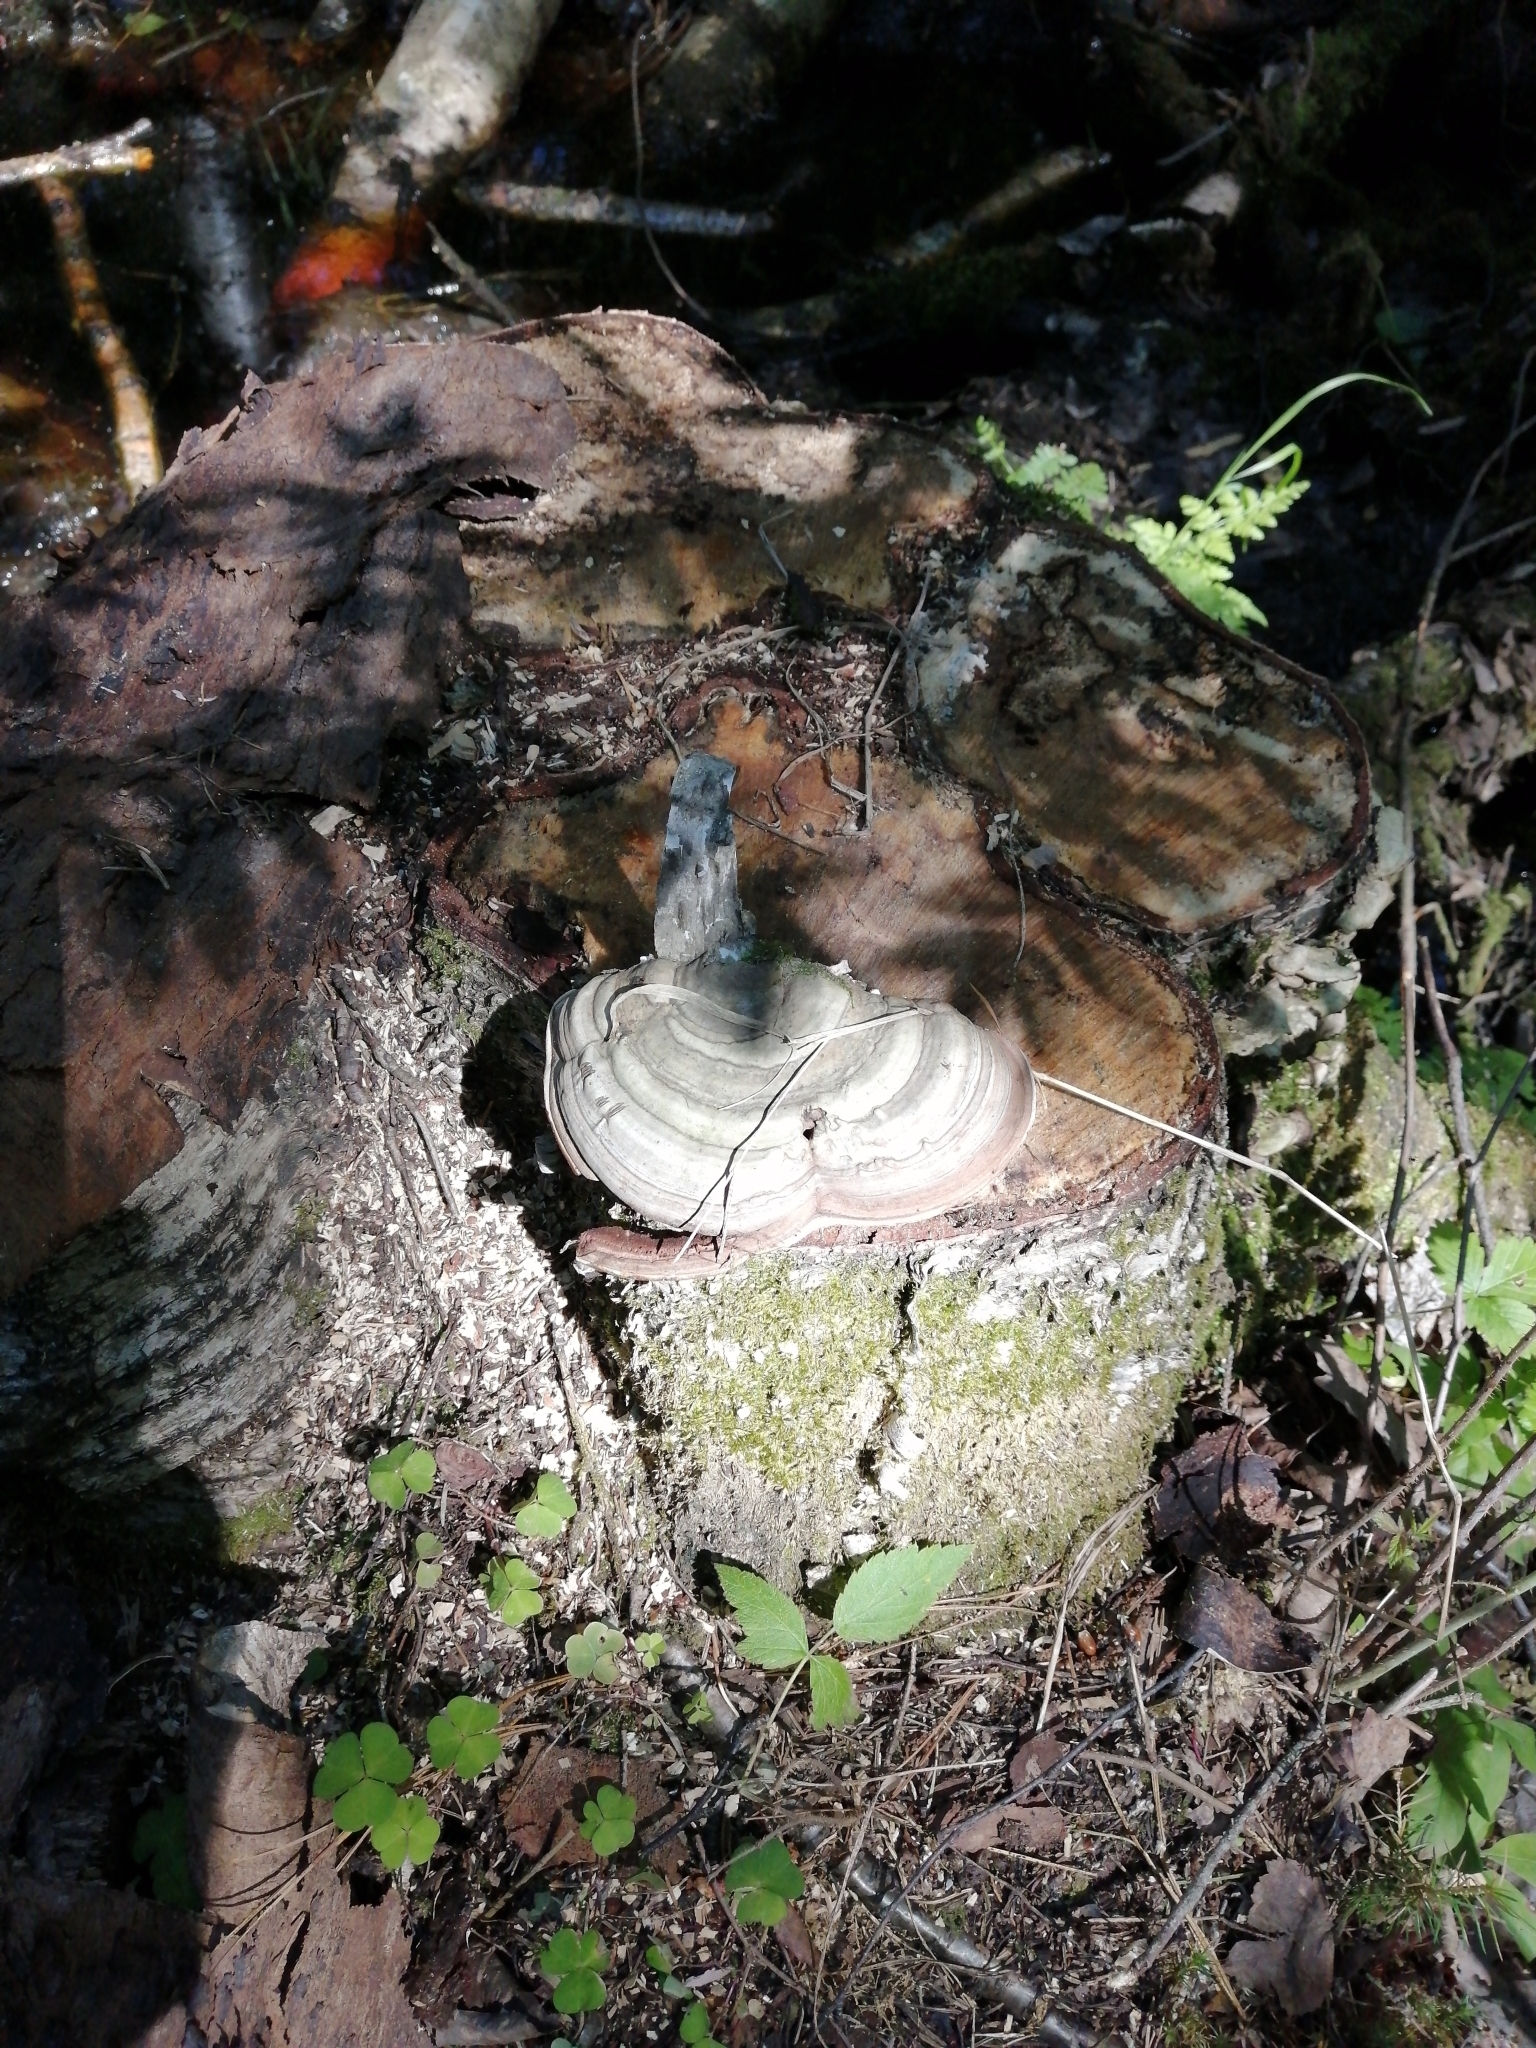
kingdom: Fungi
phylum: Basidiomycota
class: Agaricomycetes
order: Polyporales
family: Polyporaceae
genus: Ganoderma
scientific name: Ganoderma applanatum
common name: Artist's bracket
